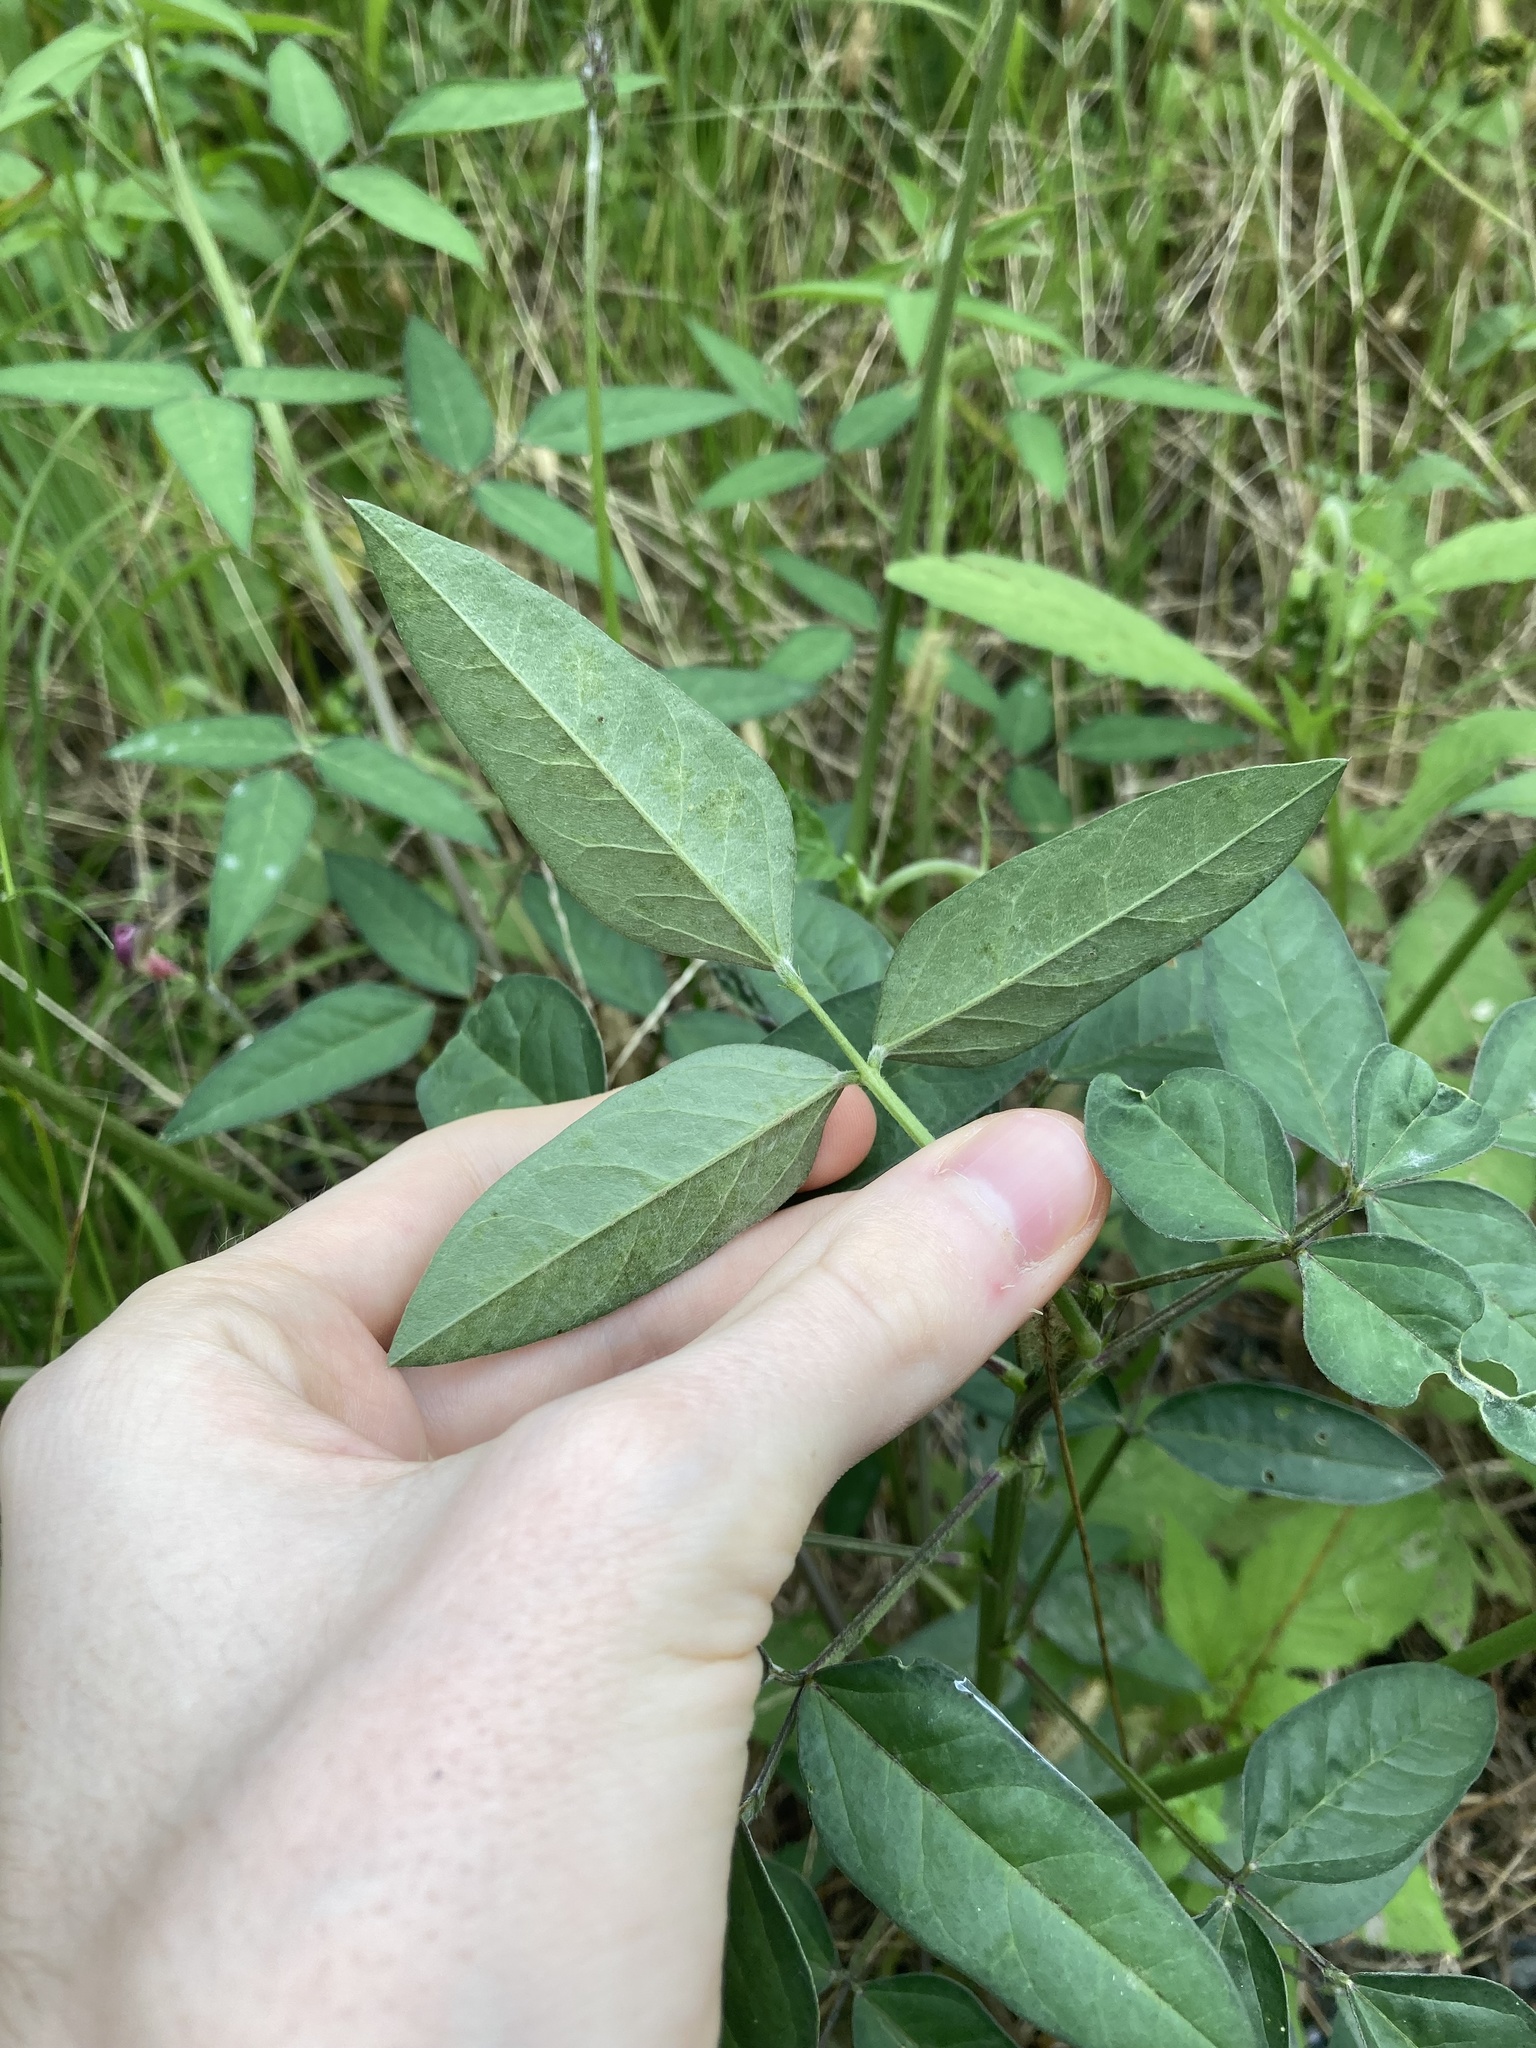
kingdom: Plantae
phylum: Tracheophyta
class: Magnoliopsida
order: Fabales
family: Fabaceae
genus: Macroptilium
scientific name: Macroptilium lathyroides
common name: Wild bushbean
